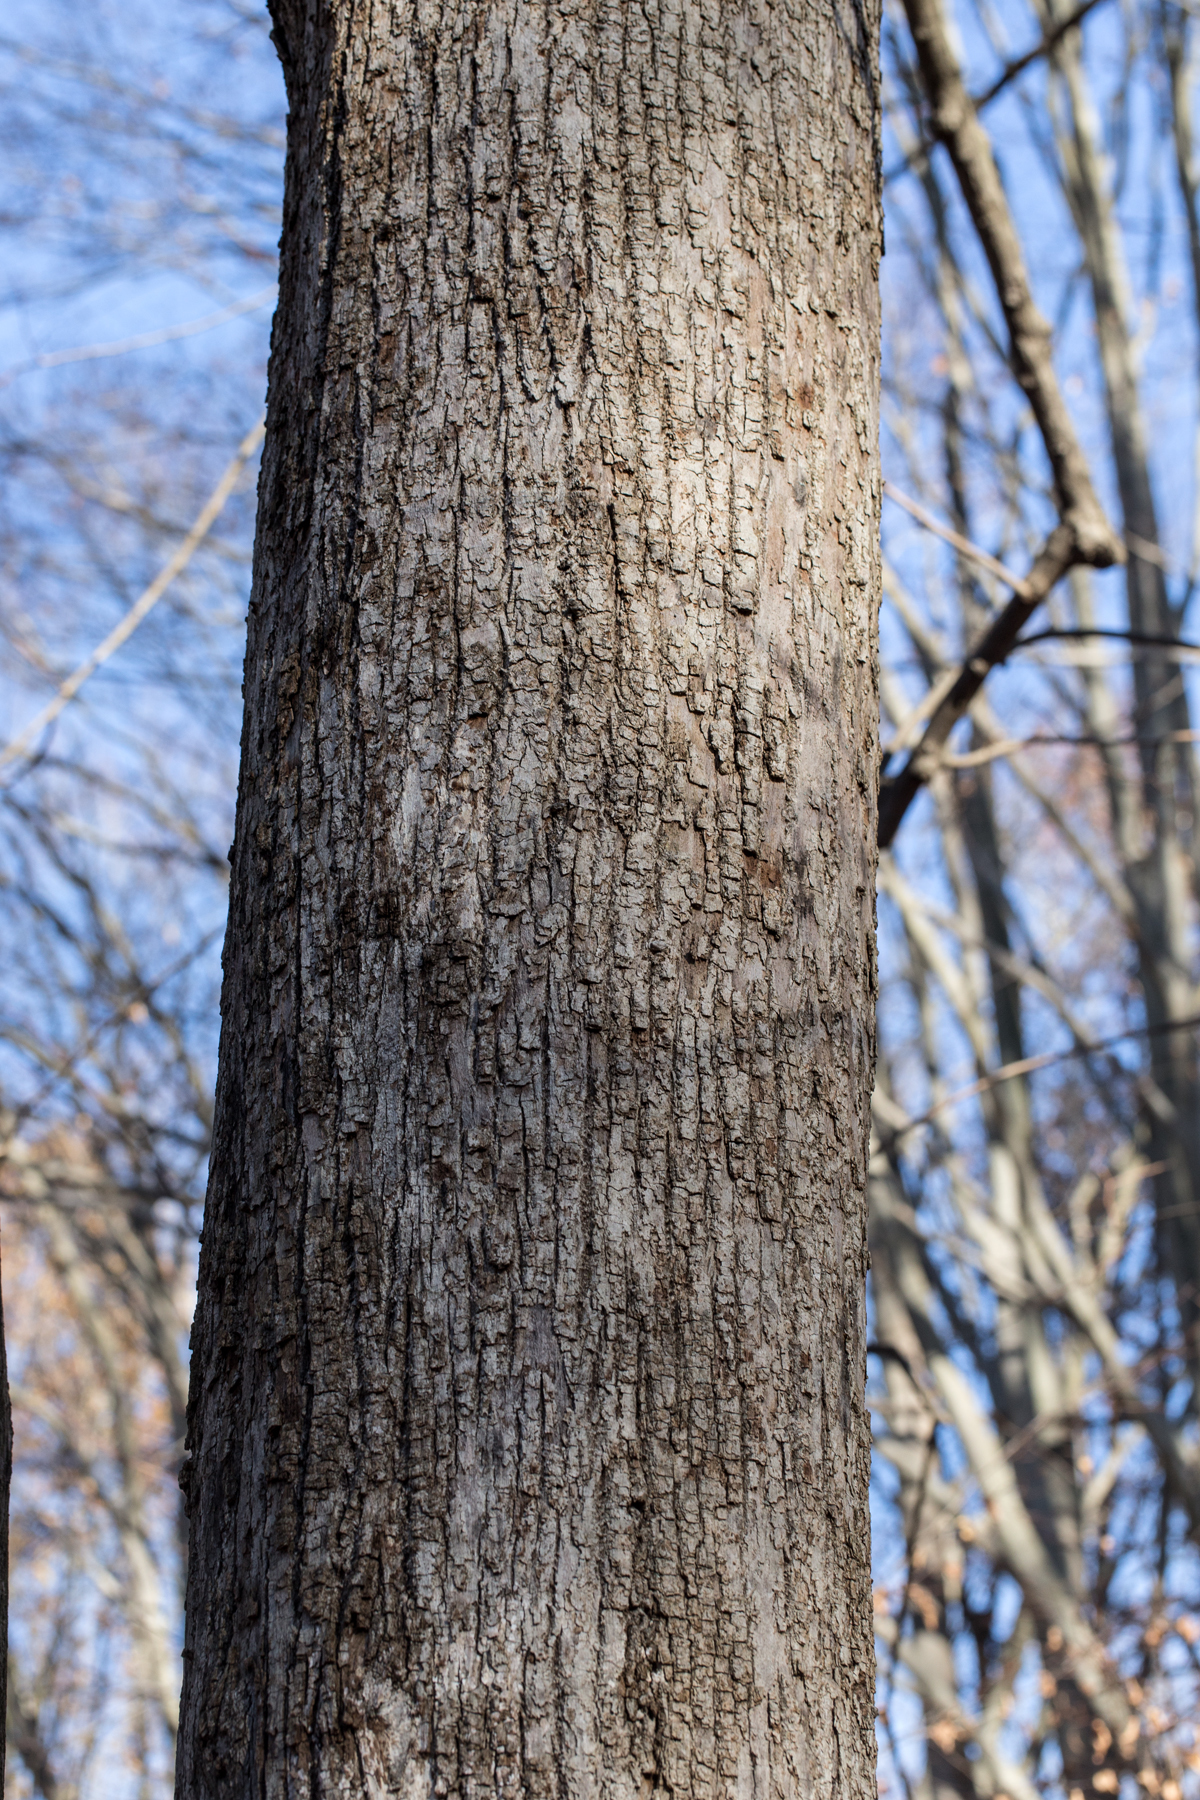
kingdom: Plantae
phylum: Tracheophyta
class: Magnoliopsida
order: Malvales
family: Malvaceae
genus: Tilia
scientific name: Tilia americana
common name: Basswood
